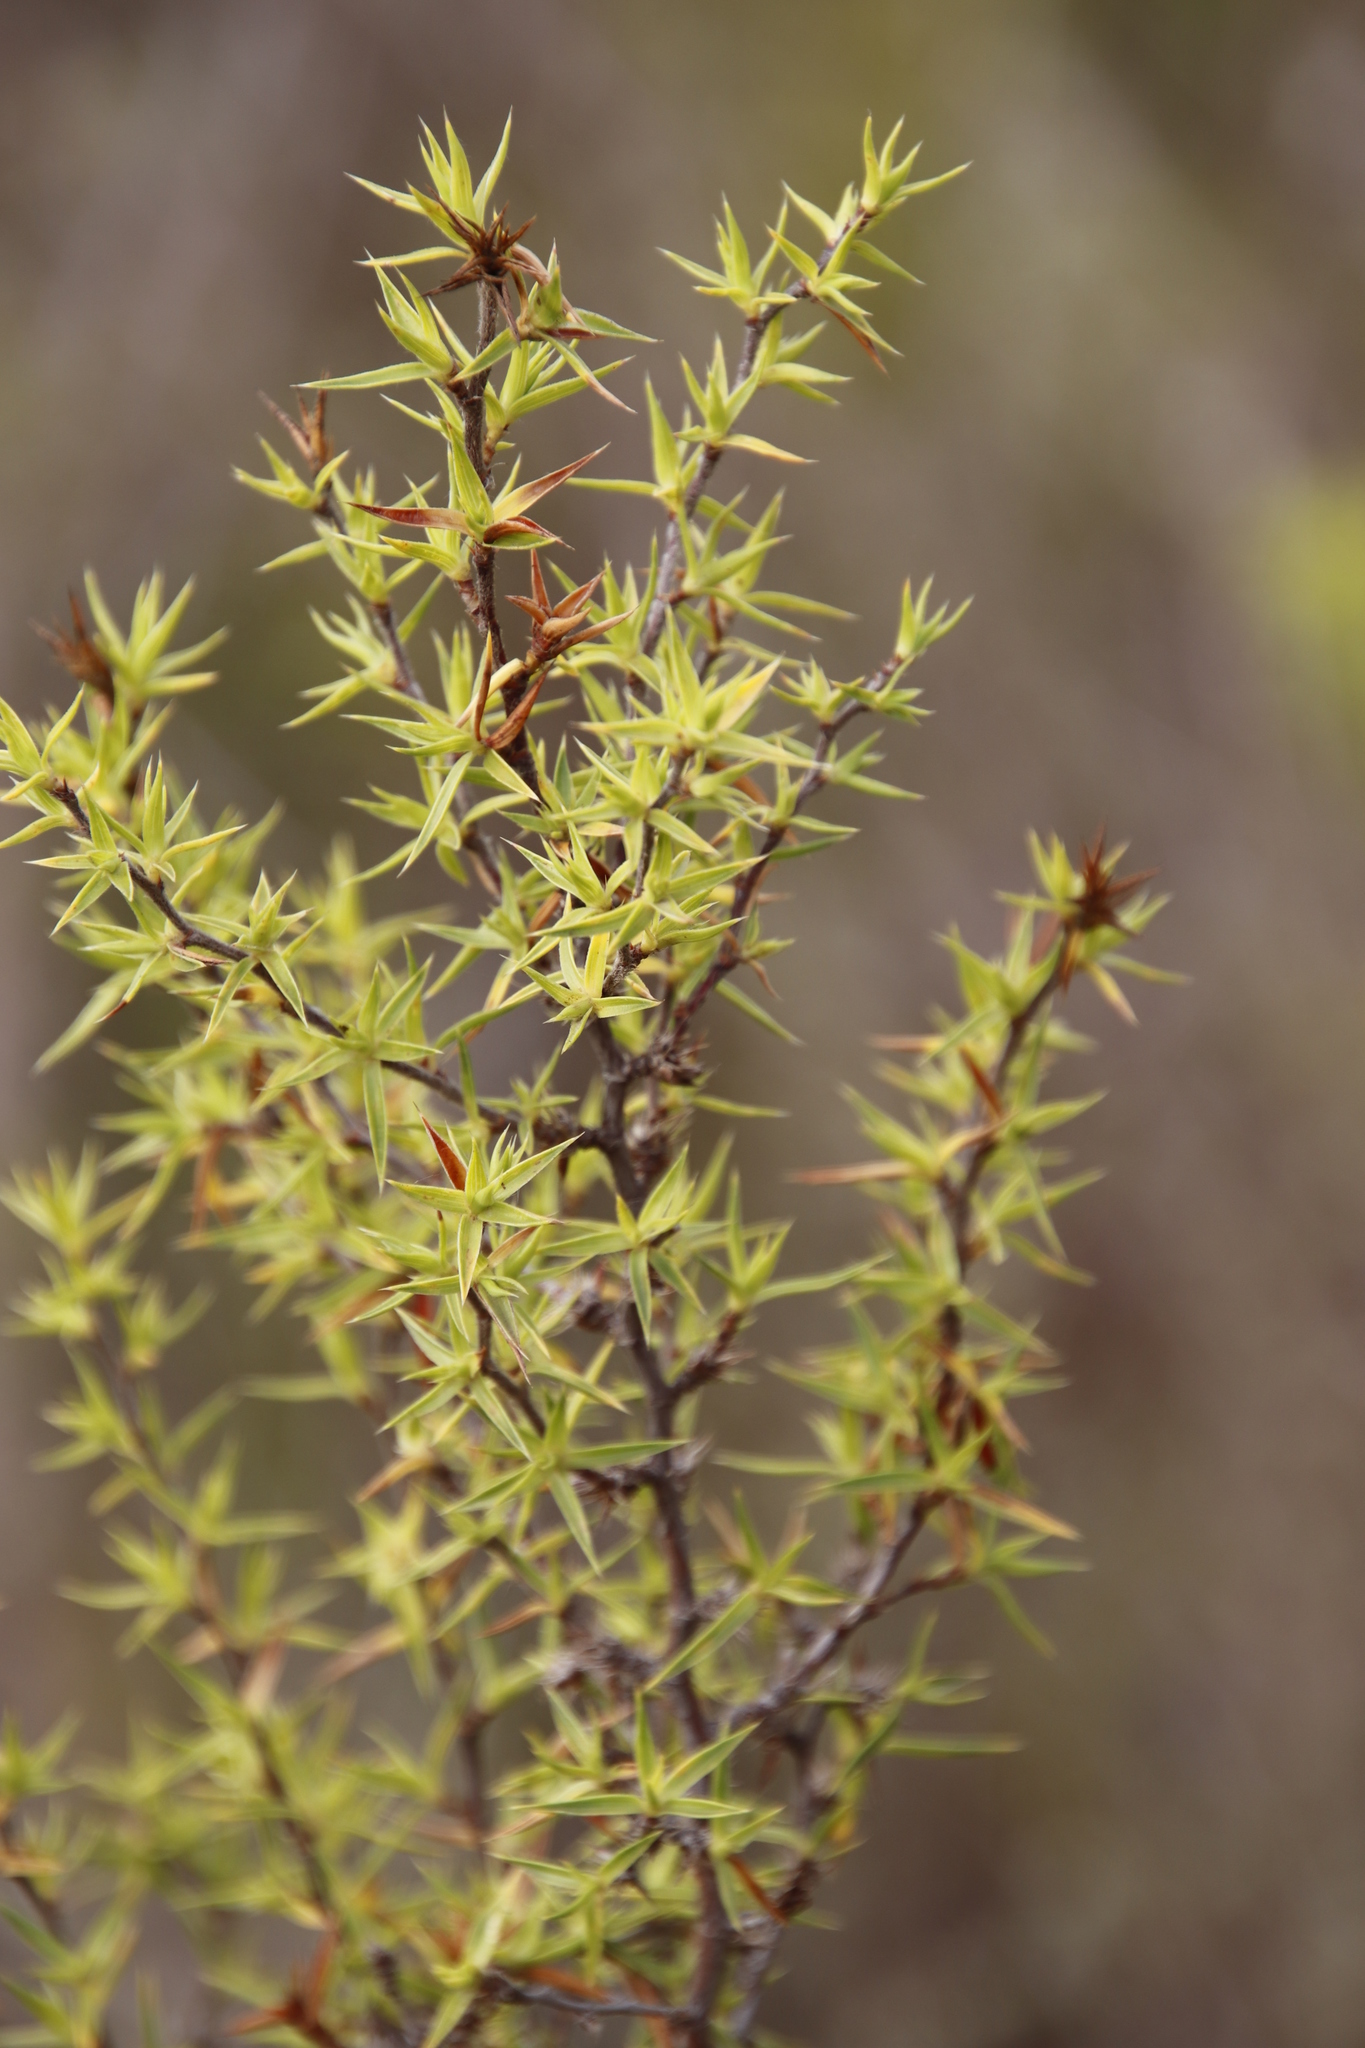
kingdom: Plantae
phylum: Tracheophyta
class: Magnoliopsida
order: Rosales
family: Rosaceae
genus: Cliffortia
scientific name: Cliffortia ruscifolia
